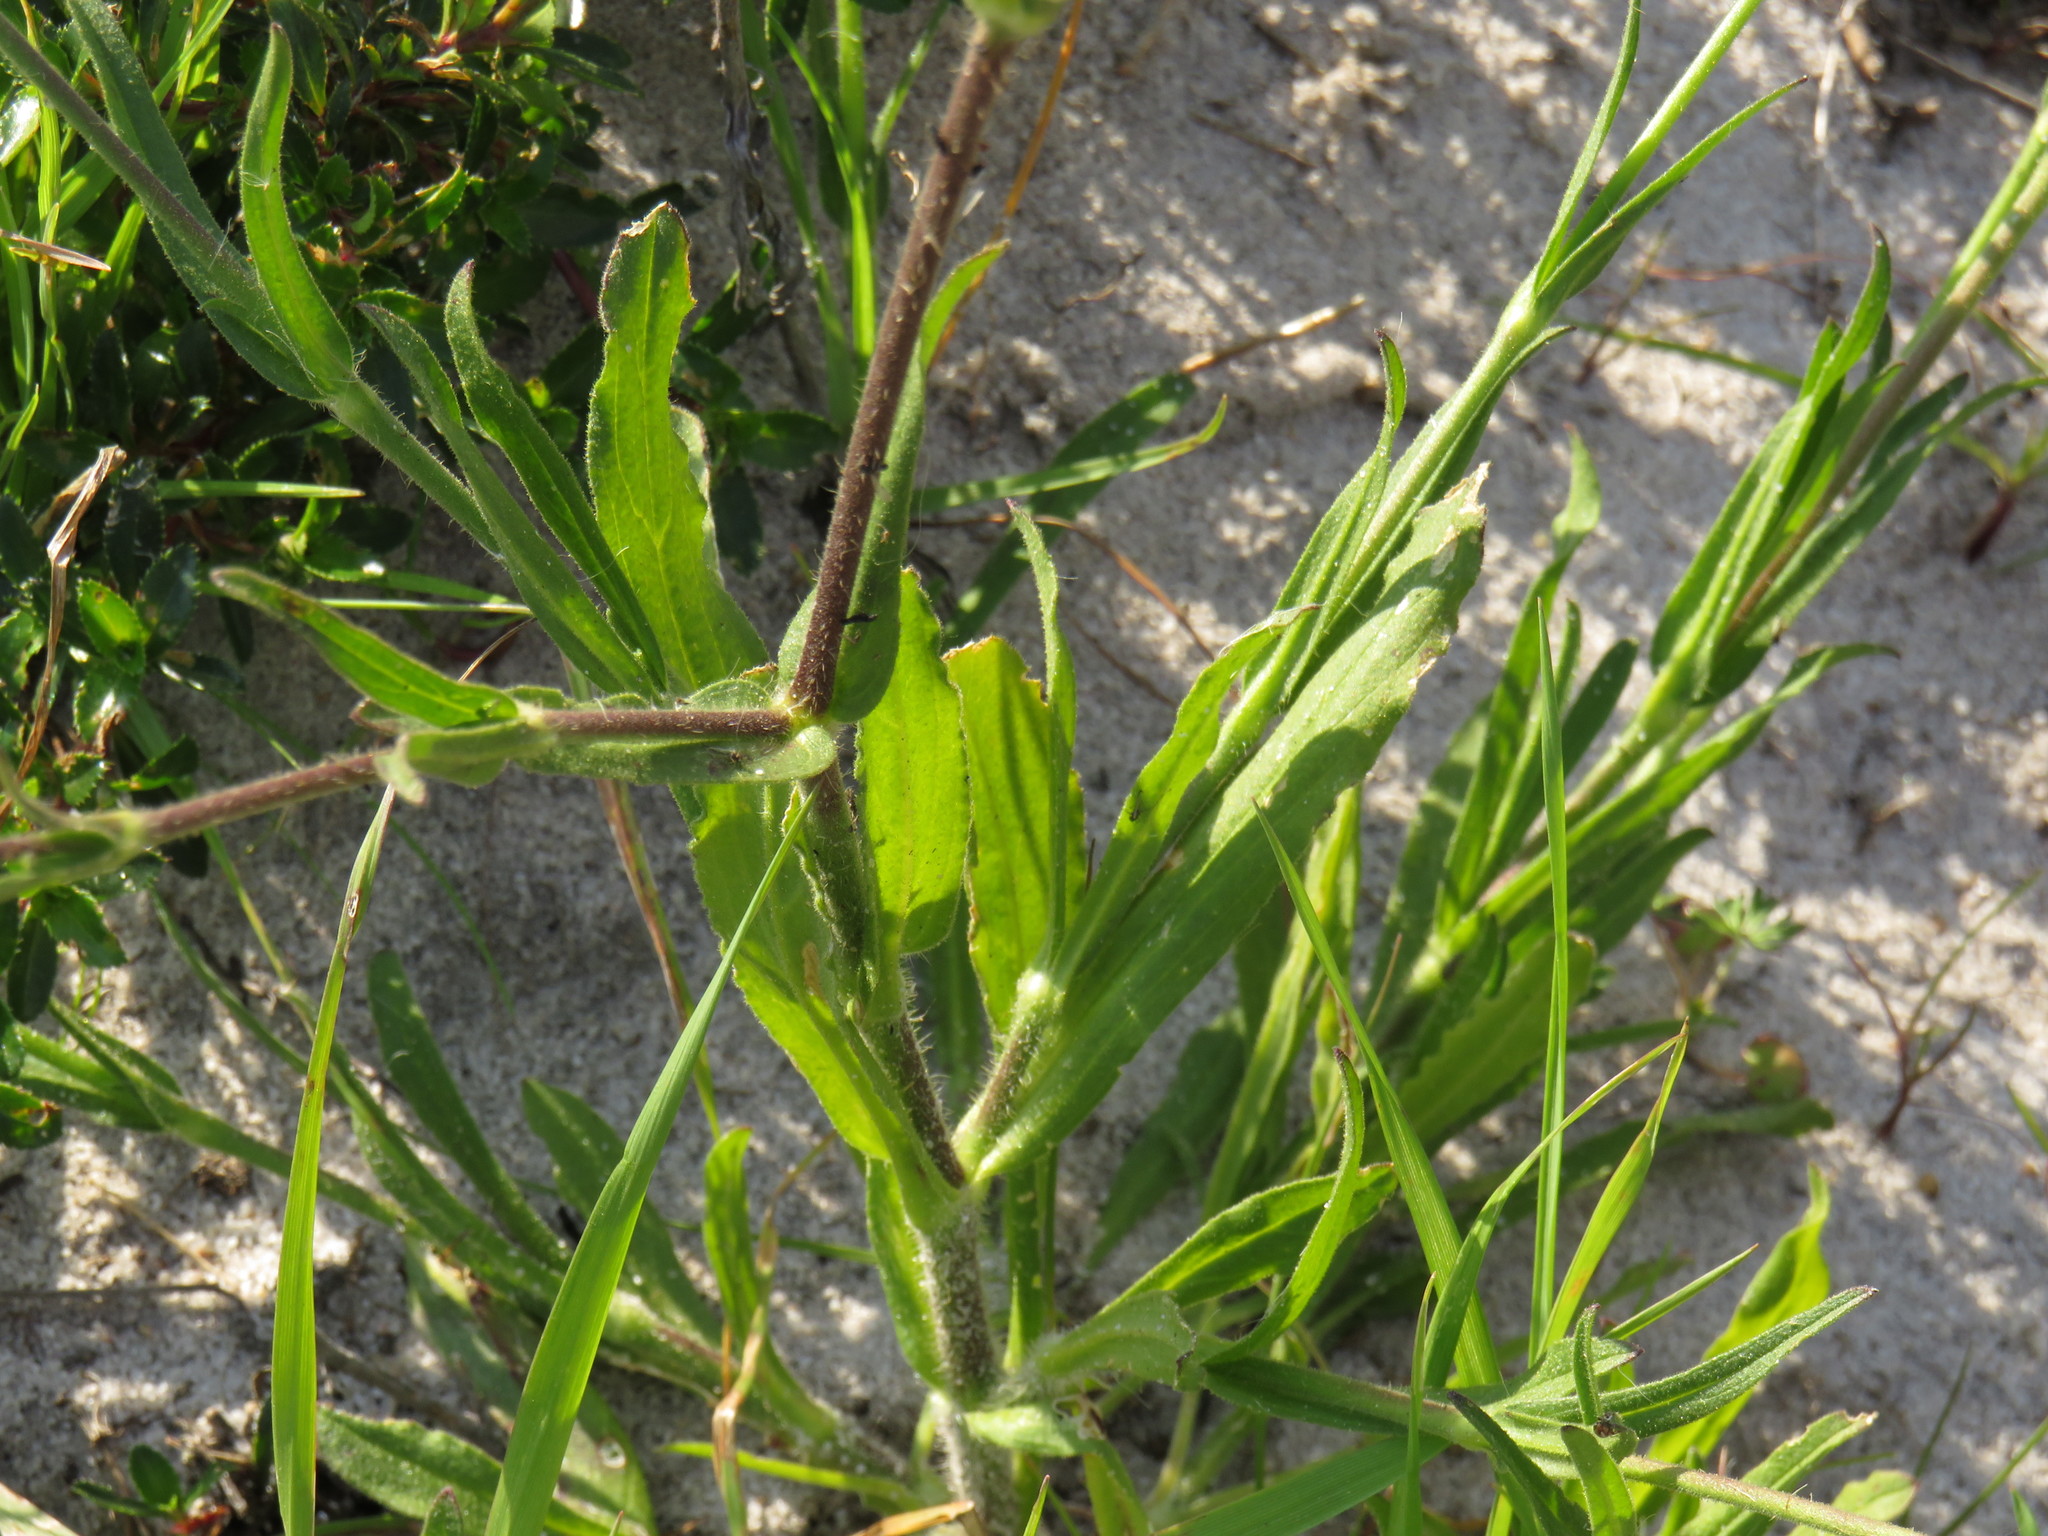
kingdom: Plantae
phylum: Tracheophyta
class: Magnoliopsida
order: Caryophyllales
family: Caryophyllaceae
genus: Silene
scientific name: Silene undulata
